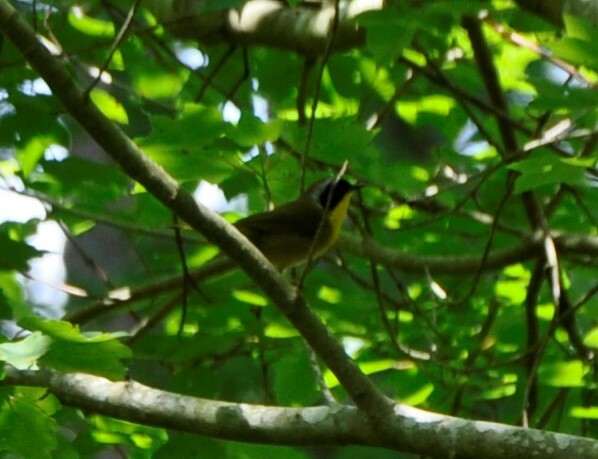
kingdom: Animalia
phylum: Chordata
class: Aves
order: Passeriformes
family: Parulidae
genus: Geothlypis
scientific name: Geothlypis trichas
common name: Common yellowthroat
